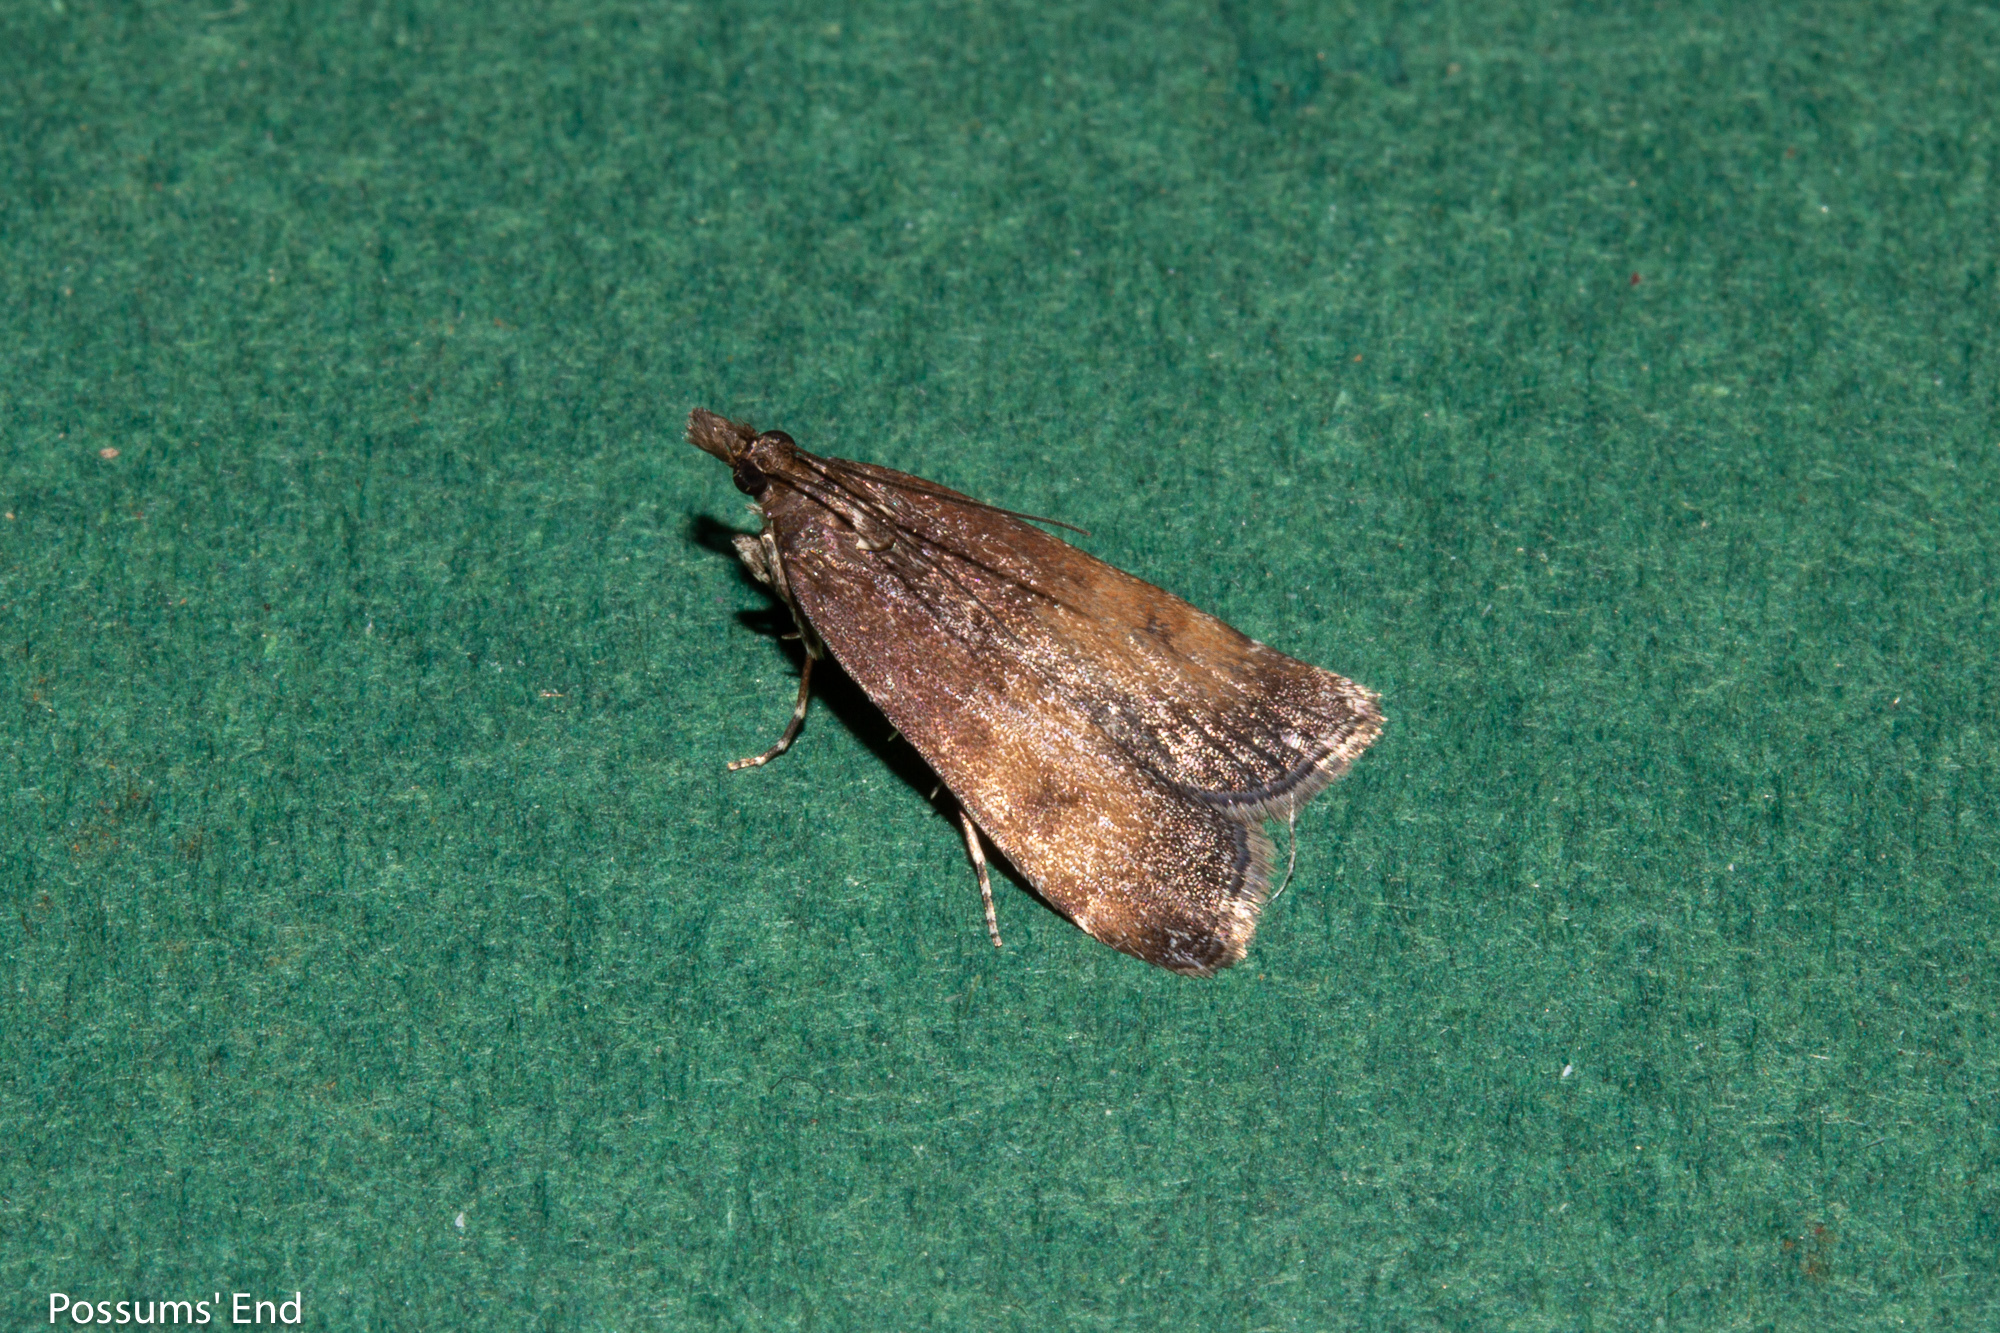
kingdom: Animalia
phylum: Arthropoda
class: Insecta
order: Lepidoptera
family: Crambidae
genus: Eudonia
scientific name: Eudonia asterisca
